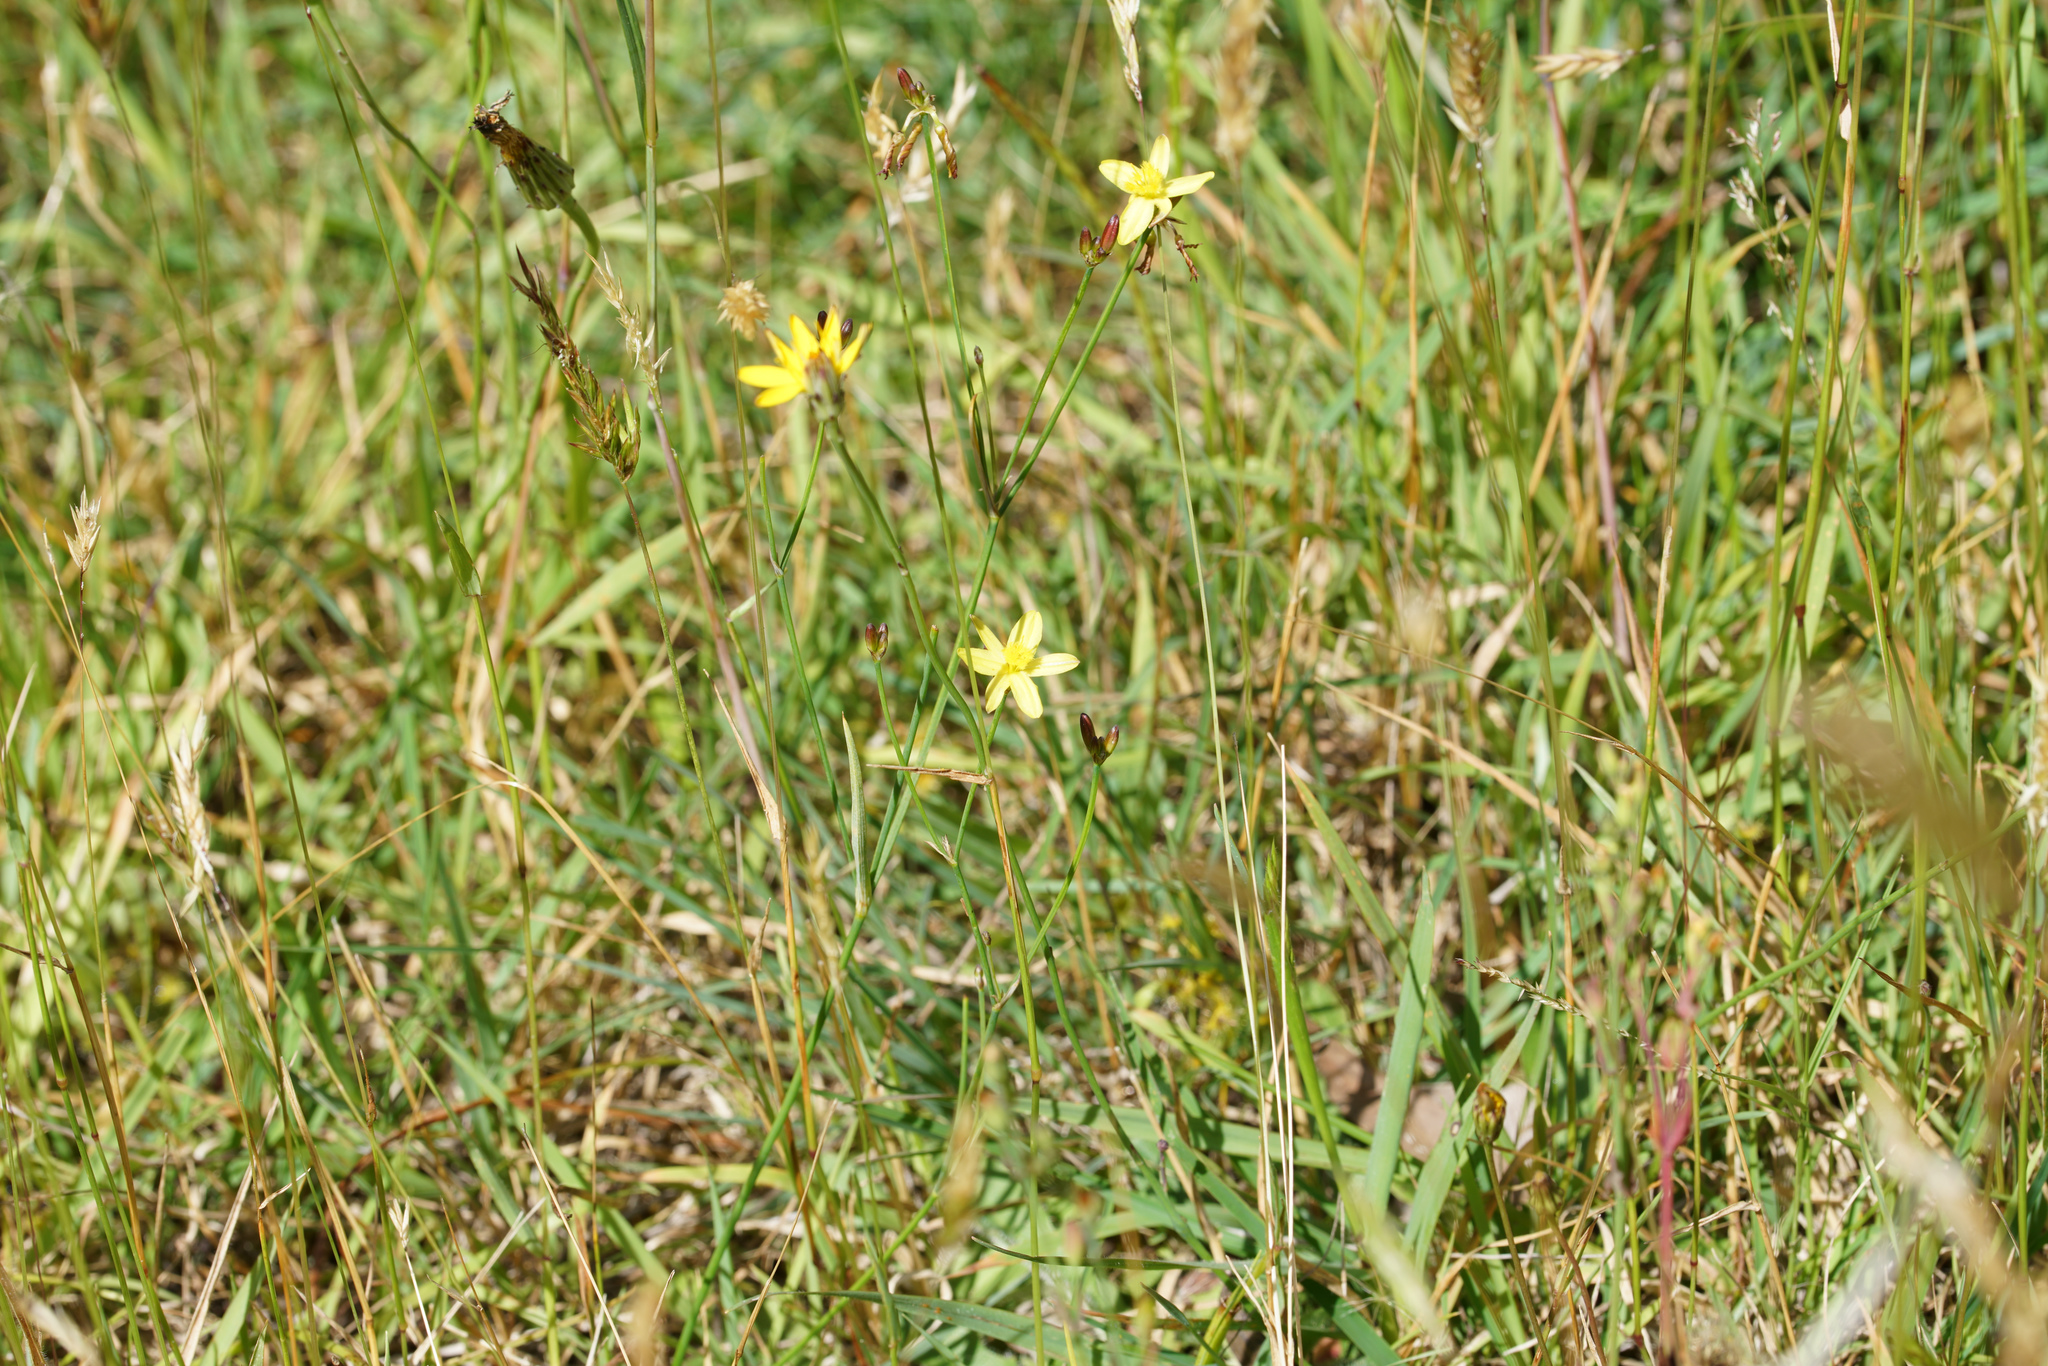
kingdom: Plantae
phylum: Tracheophyta
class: Liliopsida
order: Asparagales
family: Asphodelaceae
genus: Tricoryne
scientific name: Tricoryne elatior
